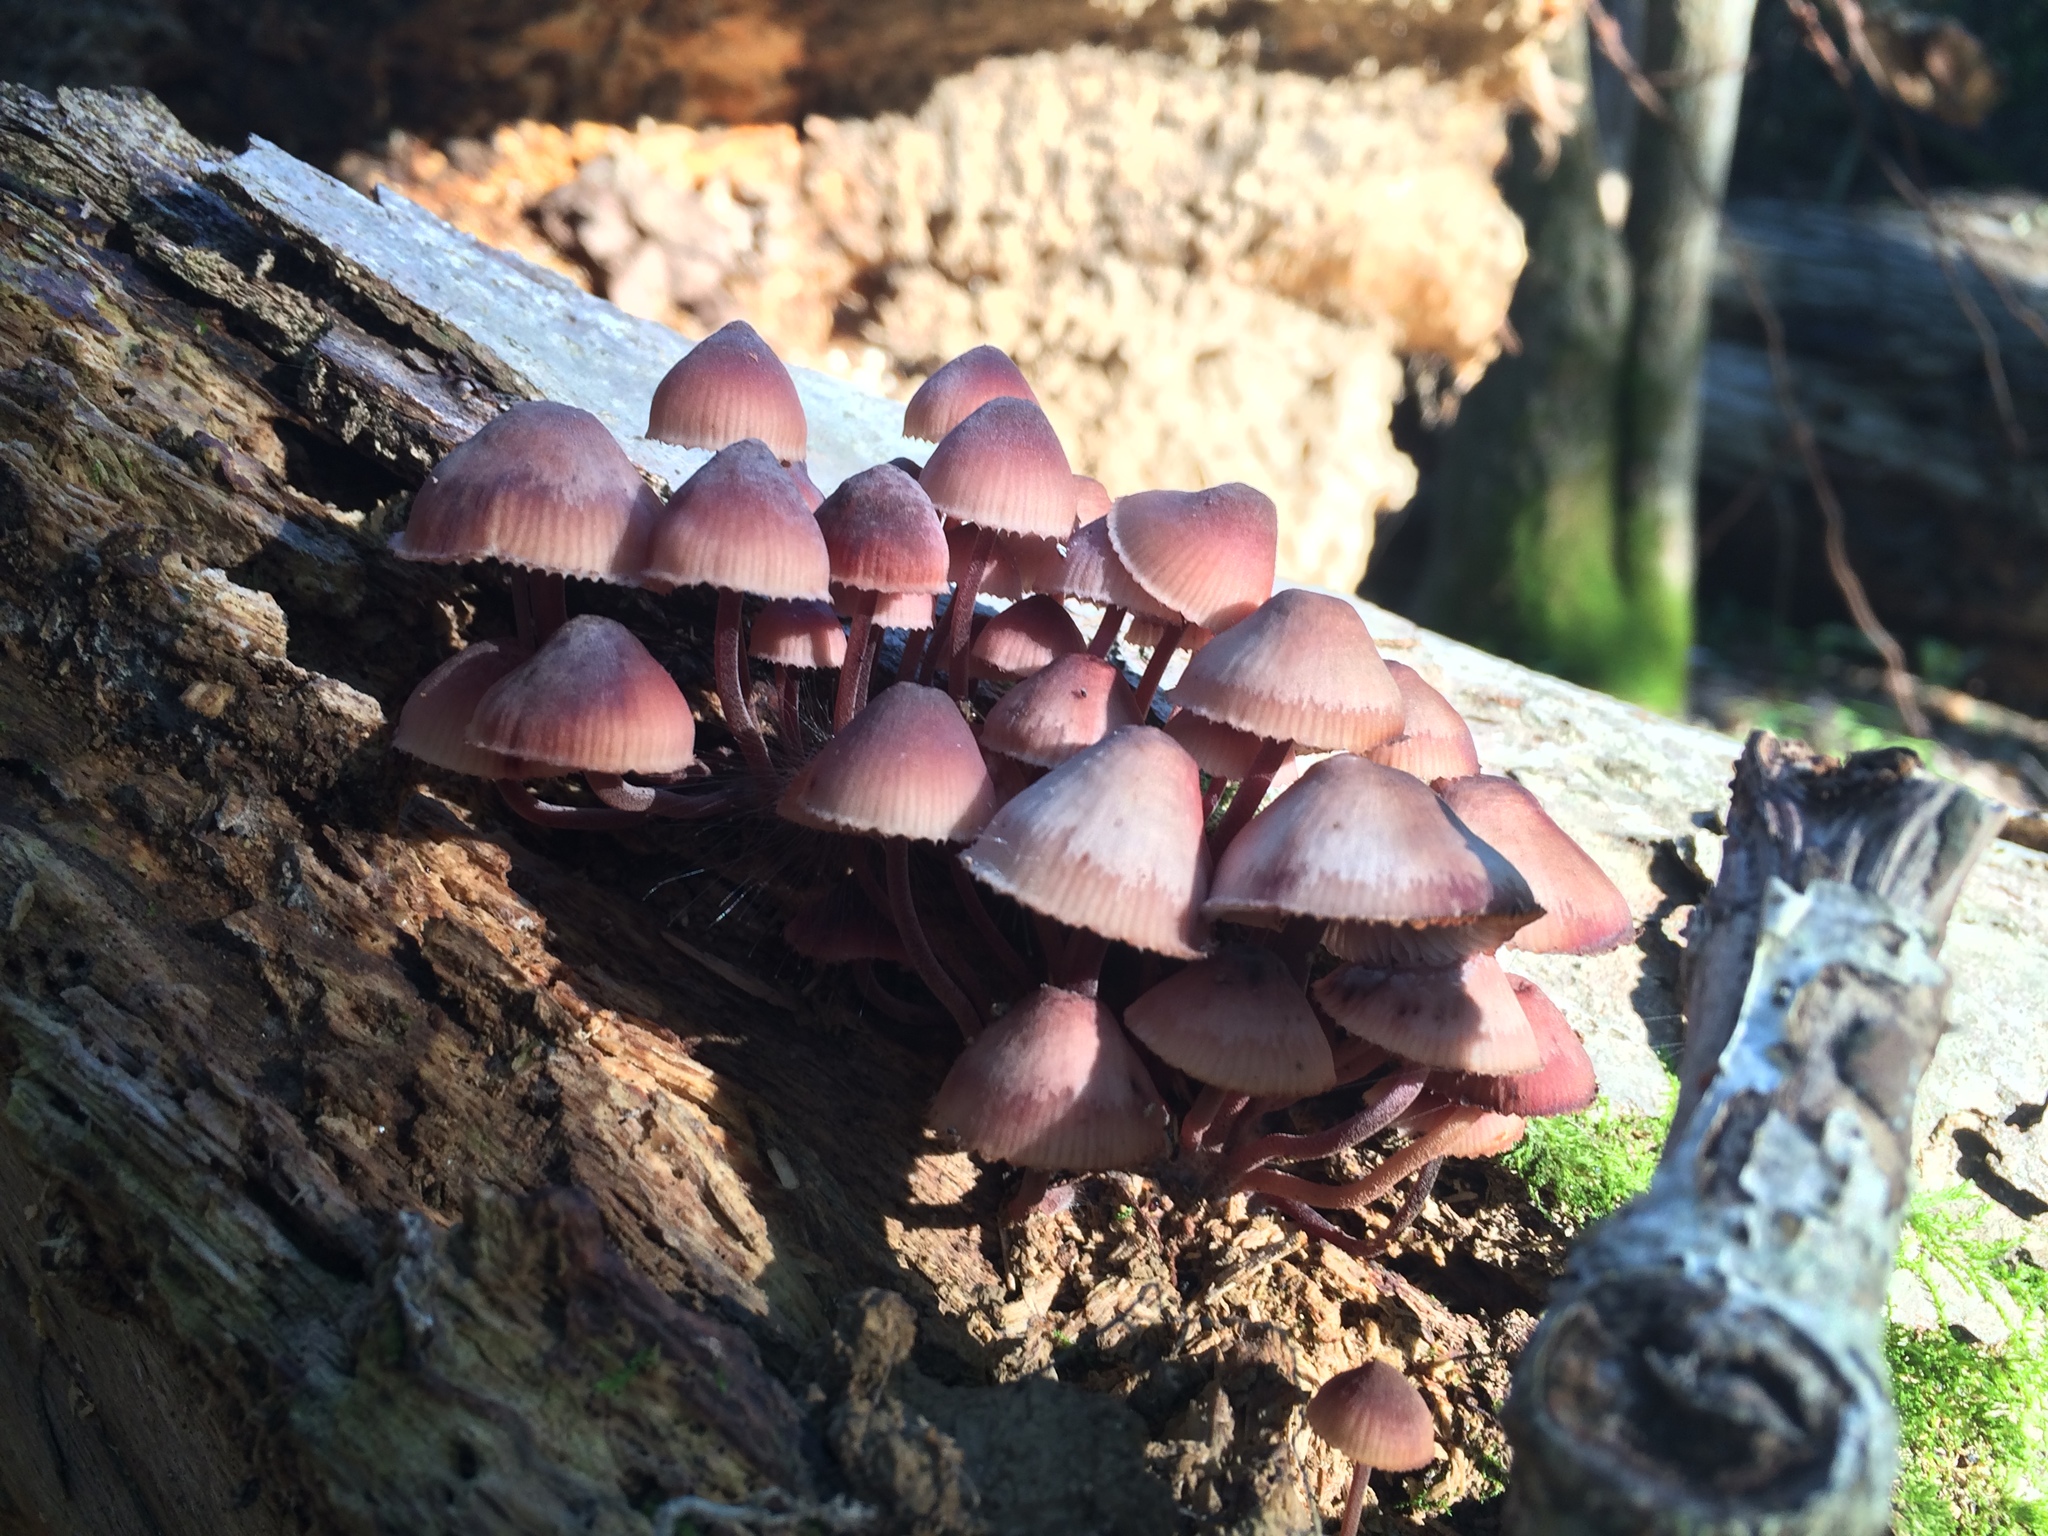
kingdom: Fungi
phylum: Basidiomycota
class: Agaricomycetes
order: Agaricales
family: Mycenaceae
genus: Mycena
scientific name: Mycena haematopus
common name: Burgundydrop bonnet
